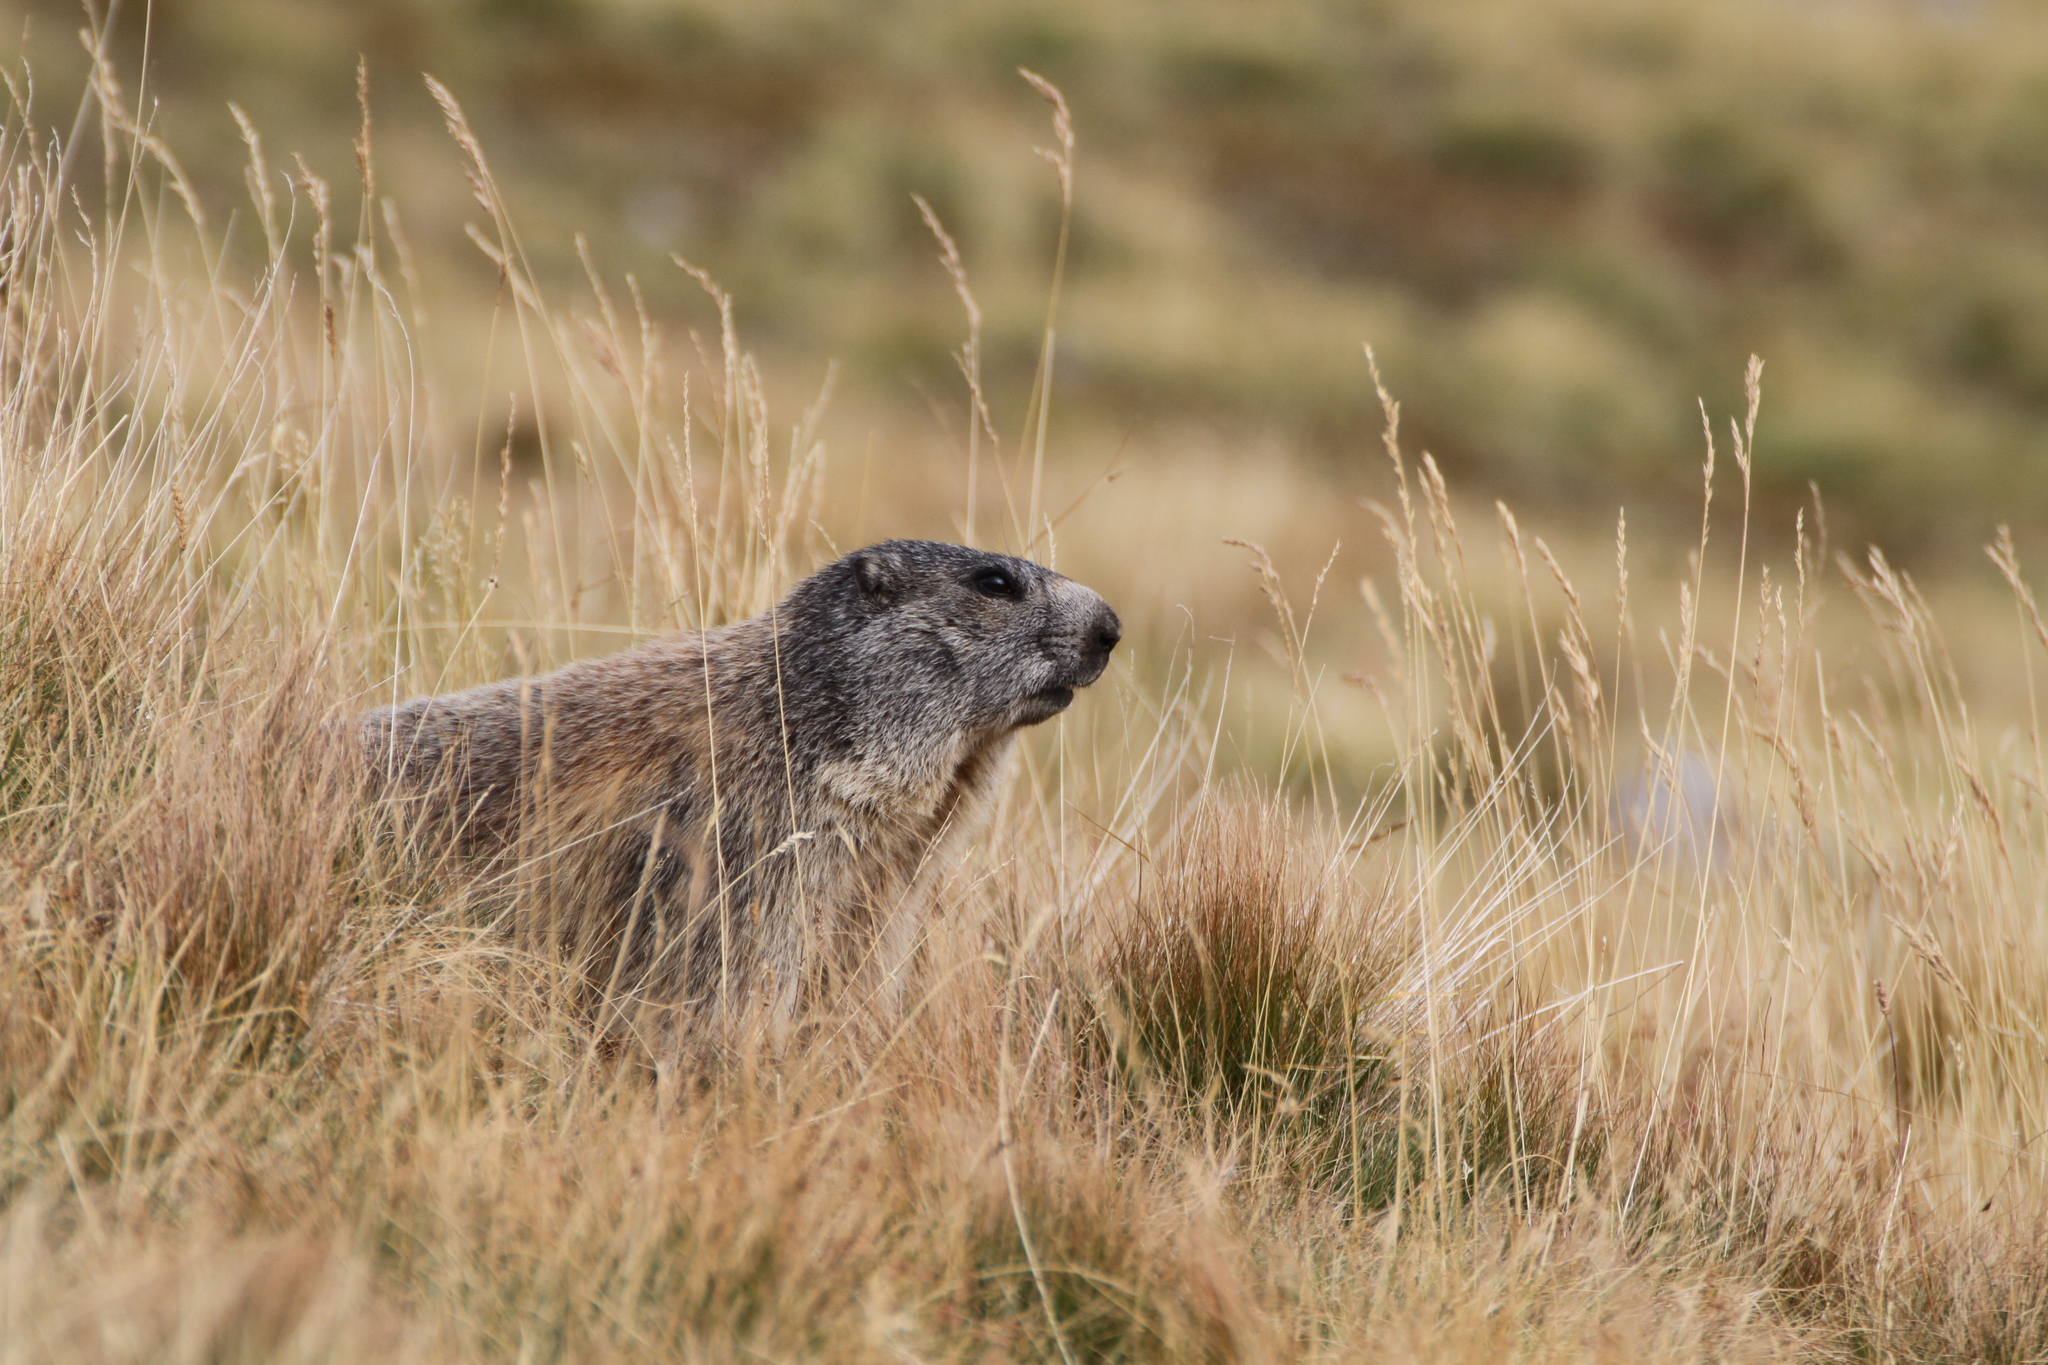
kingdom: Animalia
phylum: Chordata
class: Mammalia
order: Rodentia
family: Sciuridae
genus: Marmota
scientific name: Marmota marmota
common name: Alpine marmot
